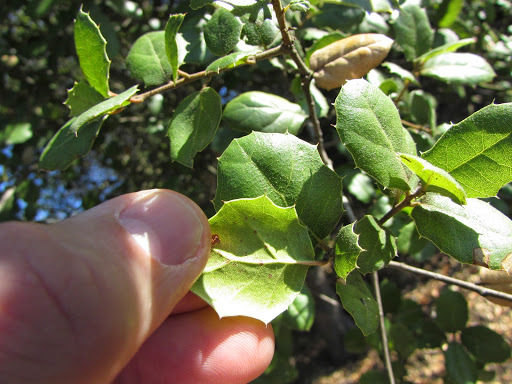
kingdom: Plantae
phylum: Tracheophyta
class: Magnoliopsida
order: Fagales
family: Fagaceae
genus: Quercus
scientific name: Quercus agrifolia
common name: California live oak
